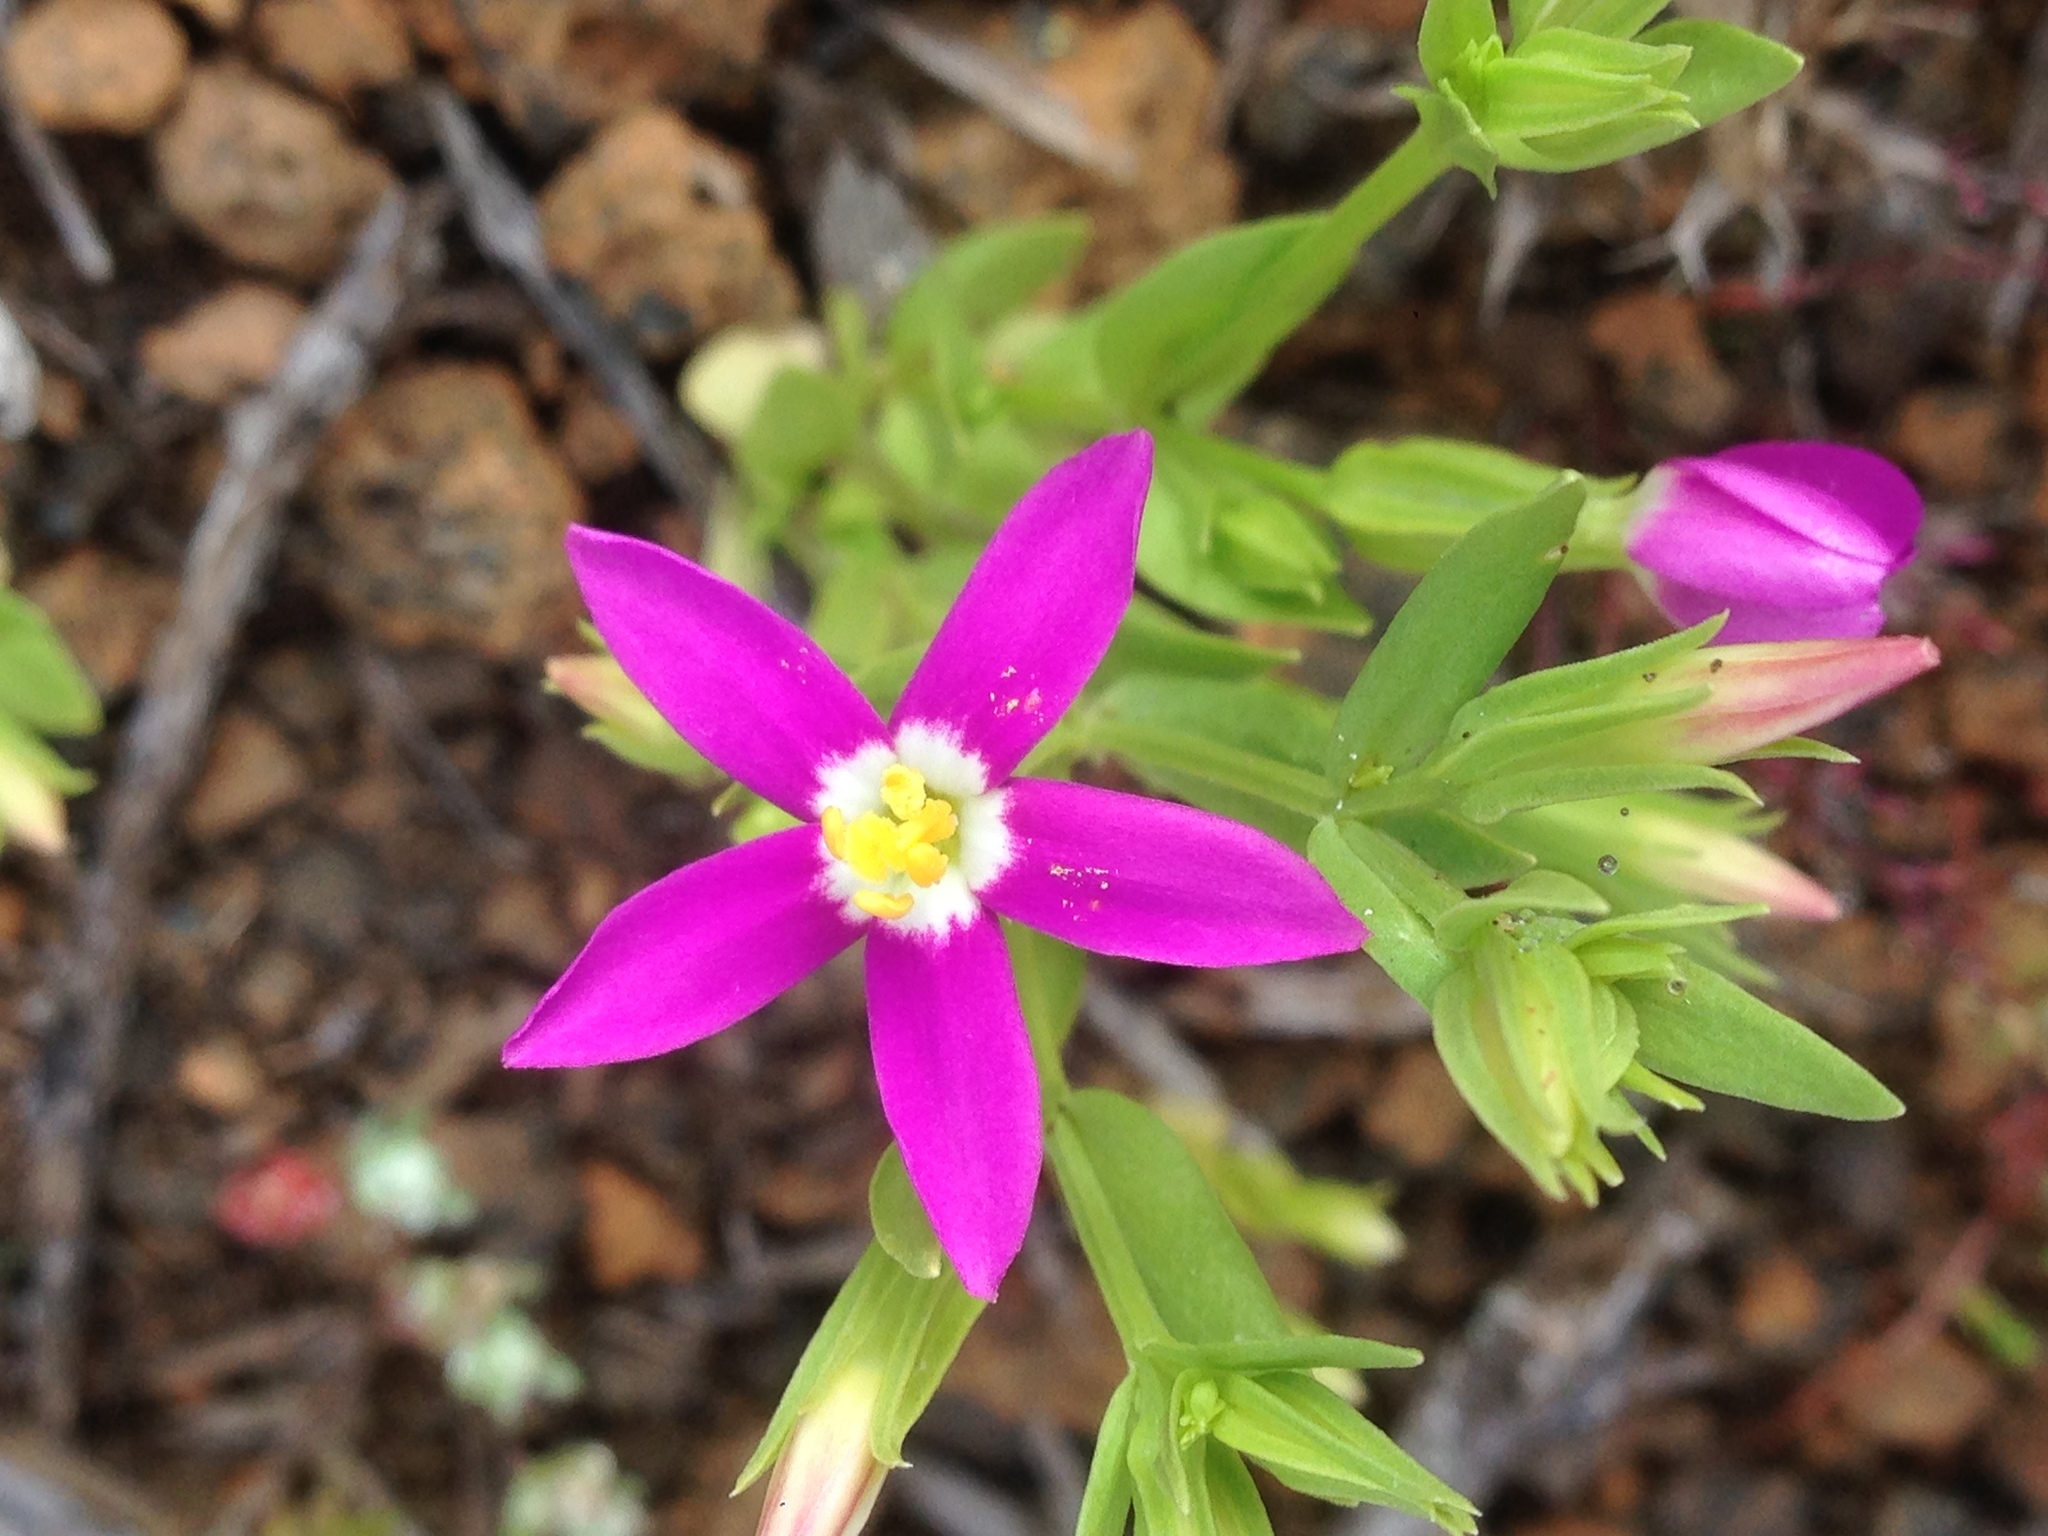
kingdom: Plantae
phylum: Tracheophyta
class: Magnoliopsida
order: Gentianales
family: Gentianaceae
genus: Zeltnera
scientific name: Zeltnera venusta
